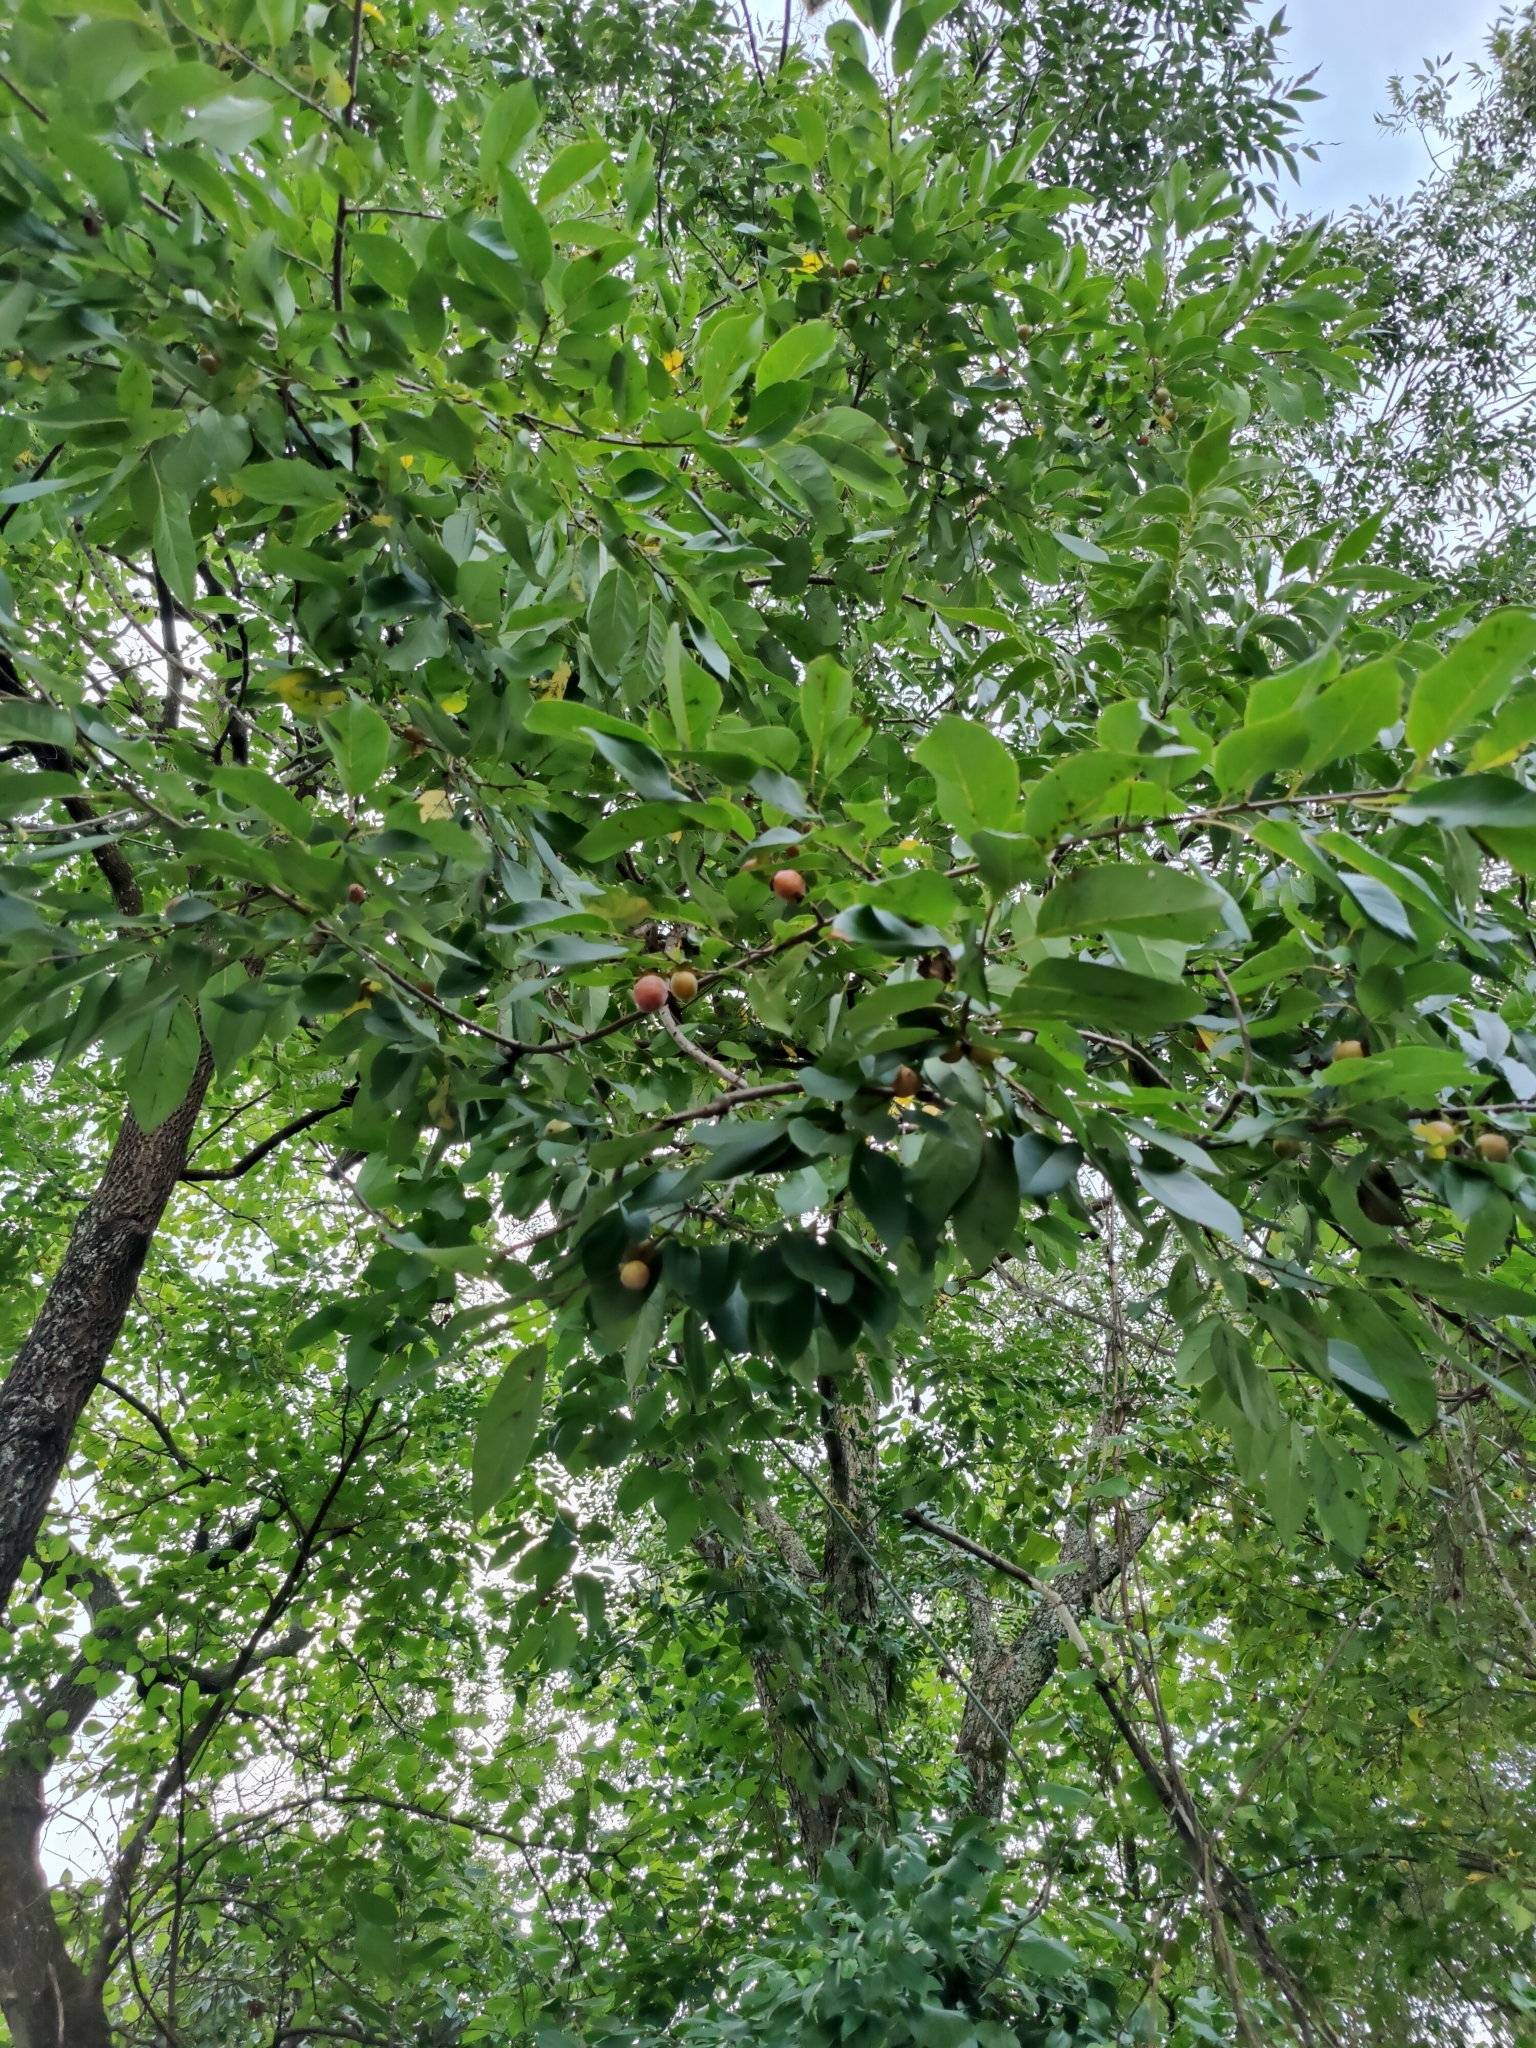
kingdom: Plantae
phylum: Tracheophyta
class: Magnoliopsida
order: Ericales
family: Ebenaceae
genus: Diospyros
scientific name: Diospyros virginiana
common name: Persimmon
